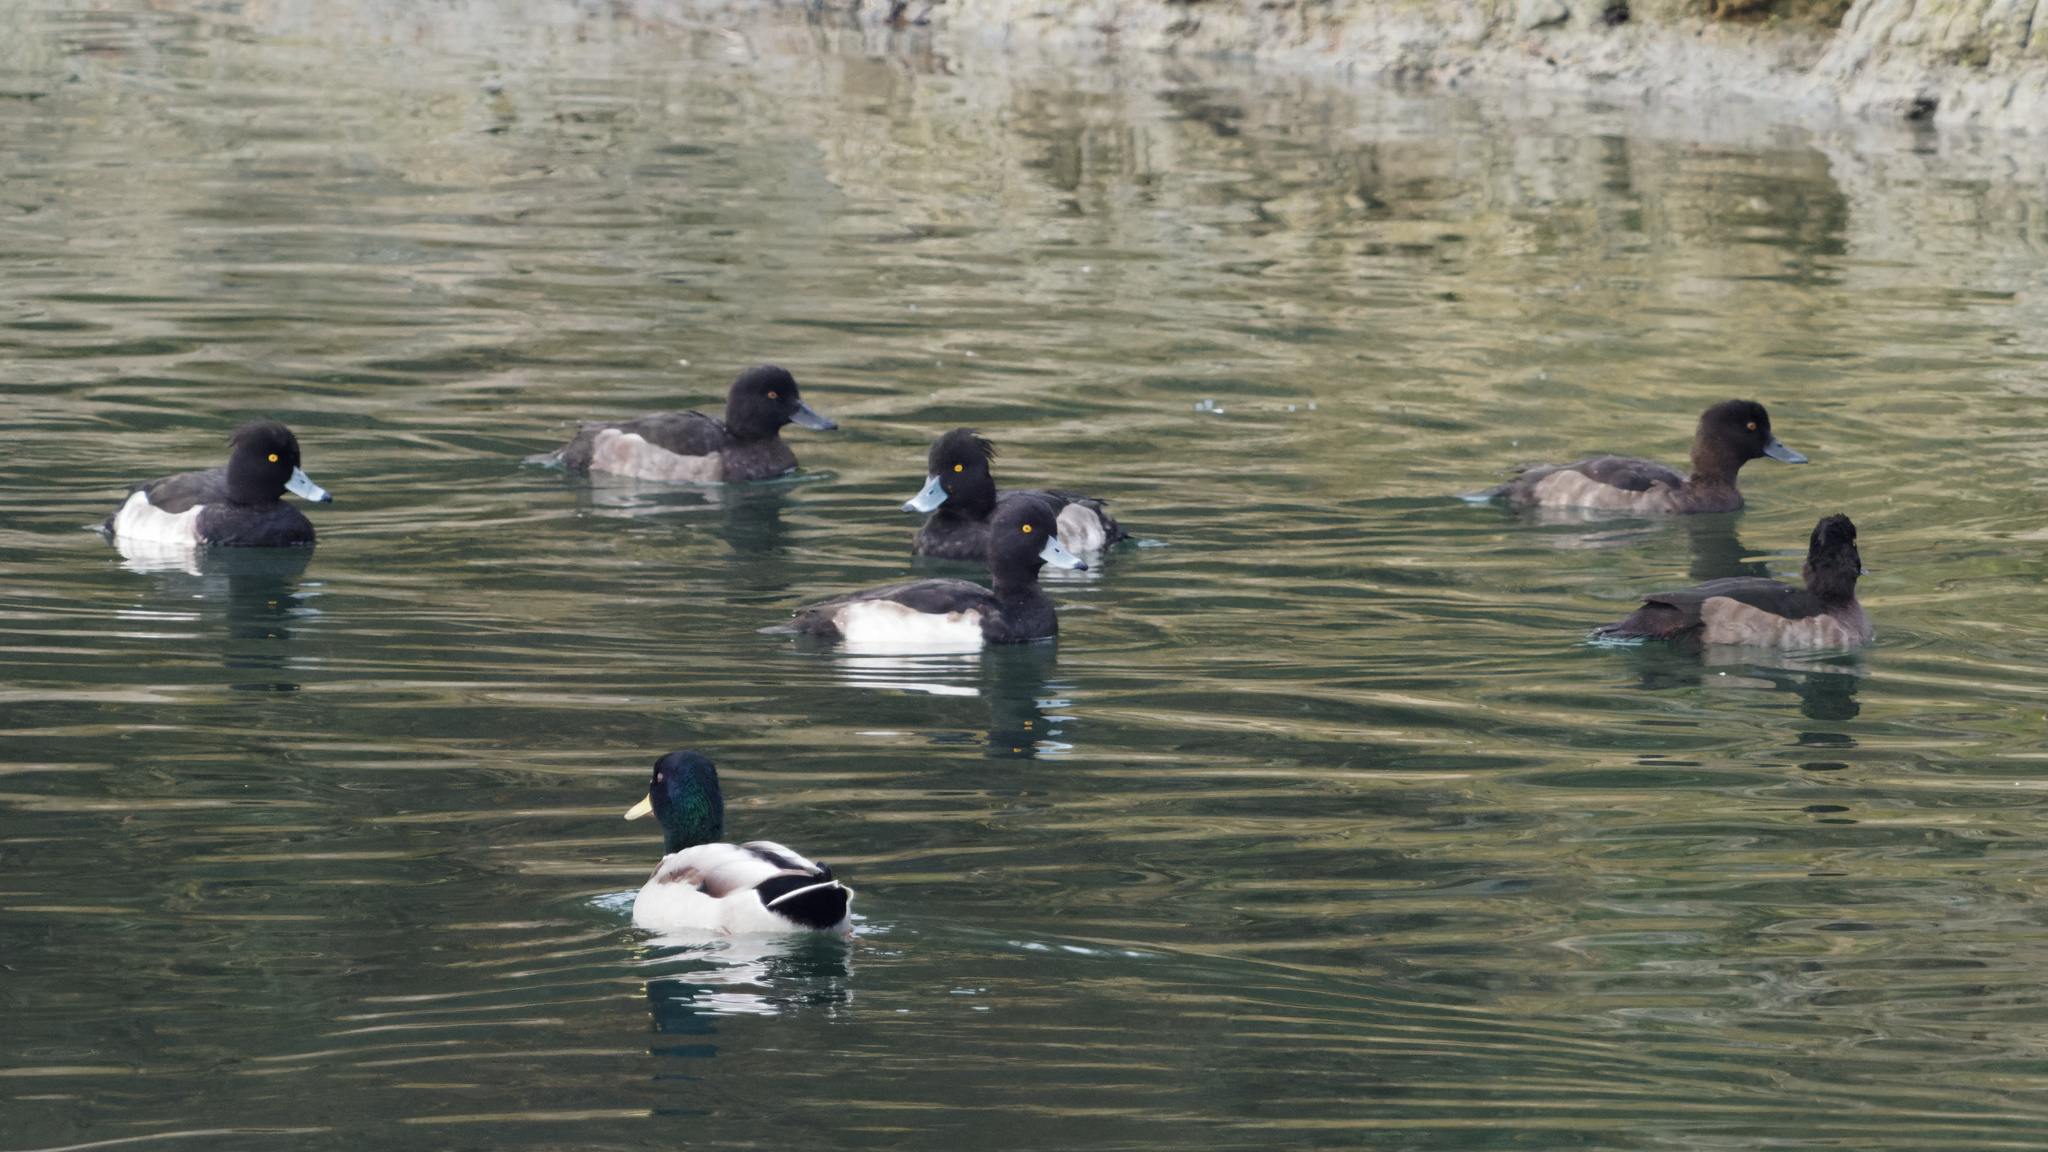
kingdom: Animalia
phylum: Chordata
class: Aves
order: Anseriformes
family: Anatidae
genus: Aythya
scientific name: Aythya fuligula
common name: Tufted duck
